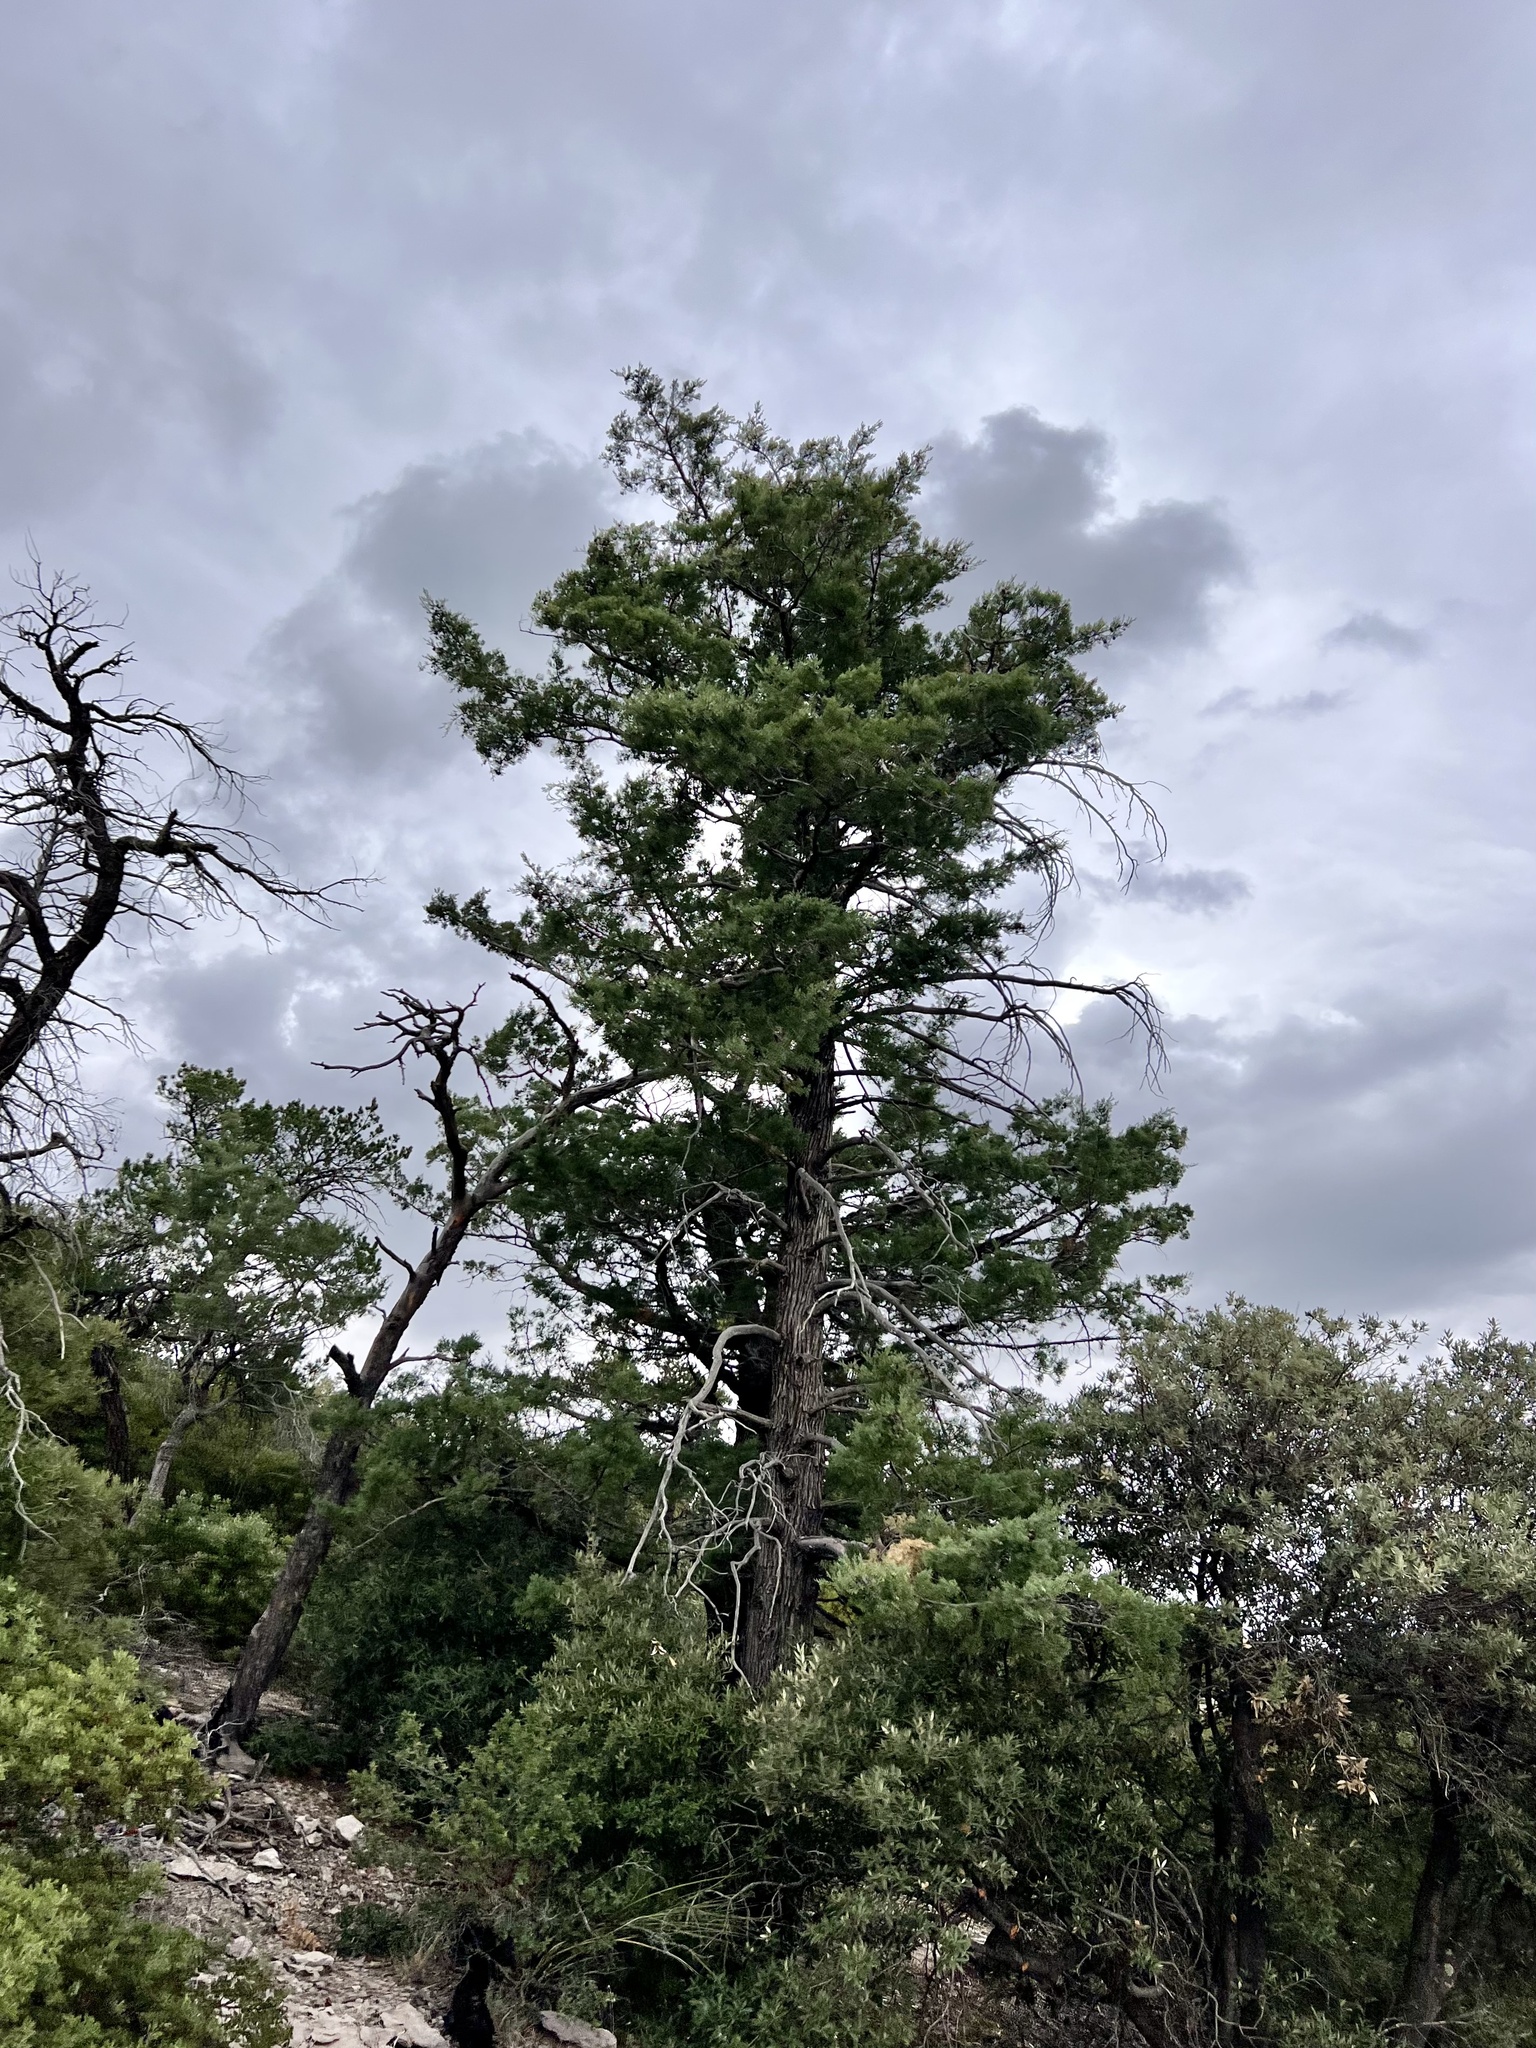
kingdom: Plantae
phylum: Tracheophyta
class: Pinopsida
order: Pinales
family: Cupressaceae
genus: Cupressus
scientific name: Cupressus arizonica
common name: Arizona cypress
